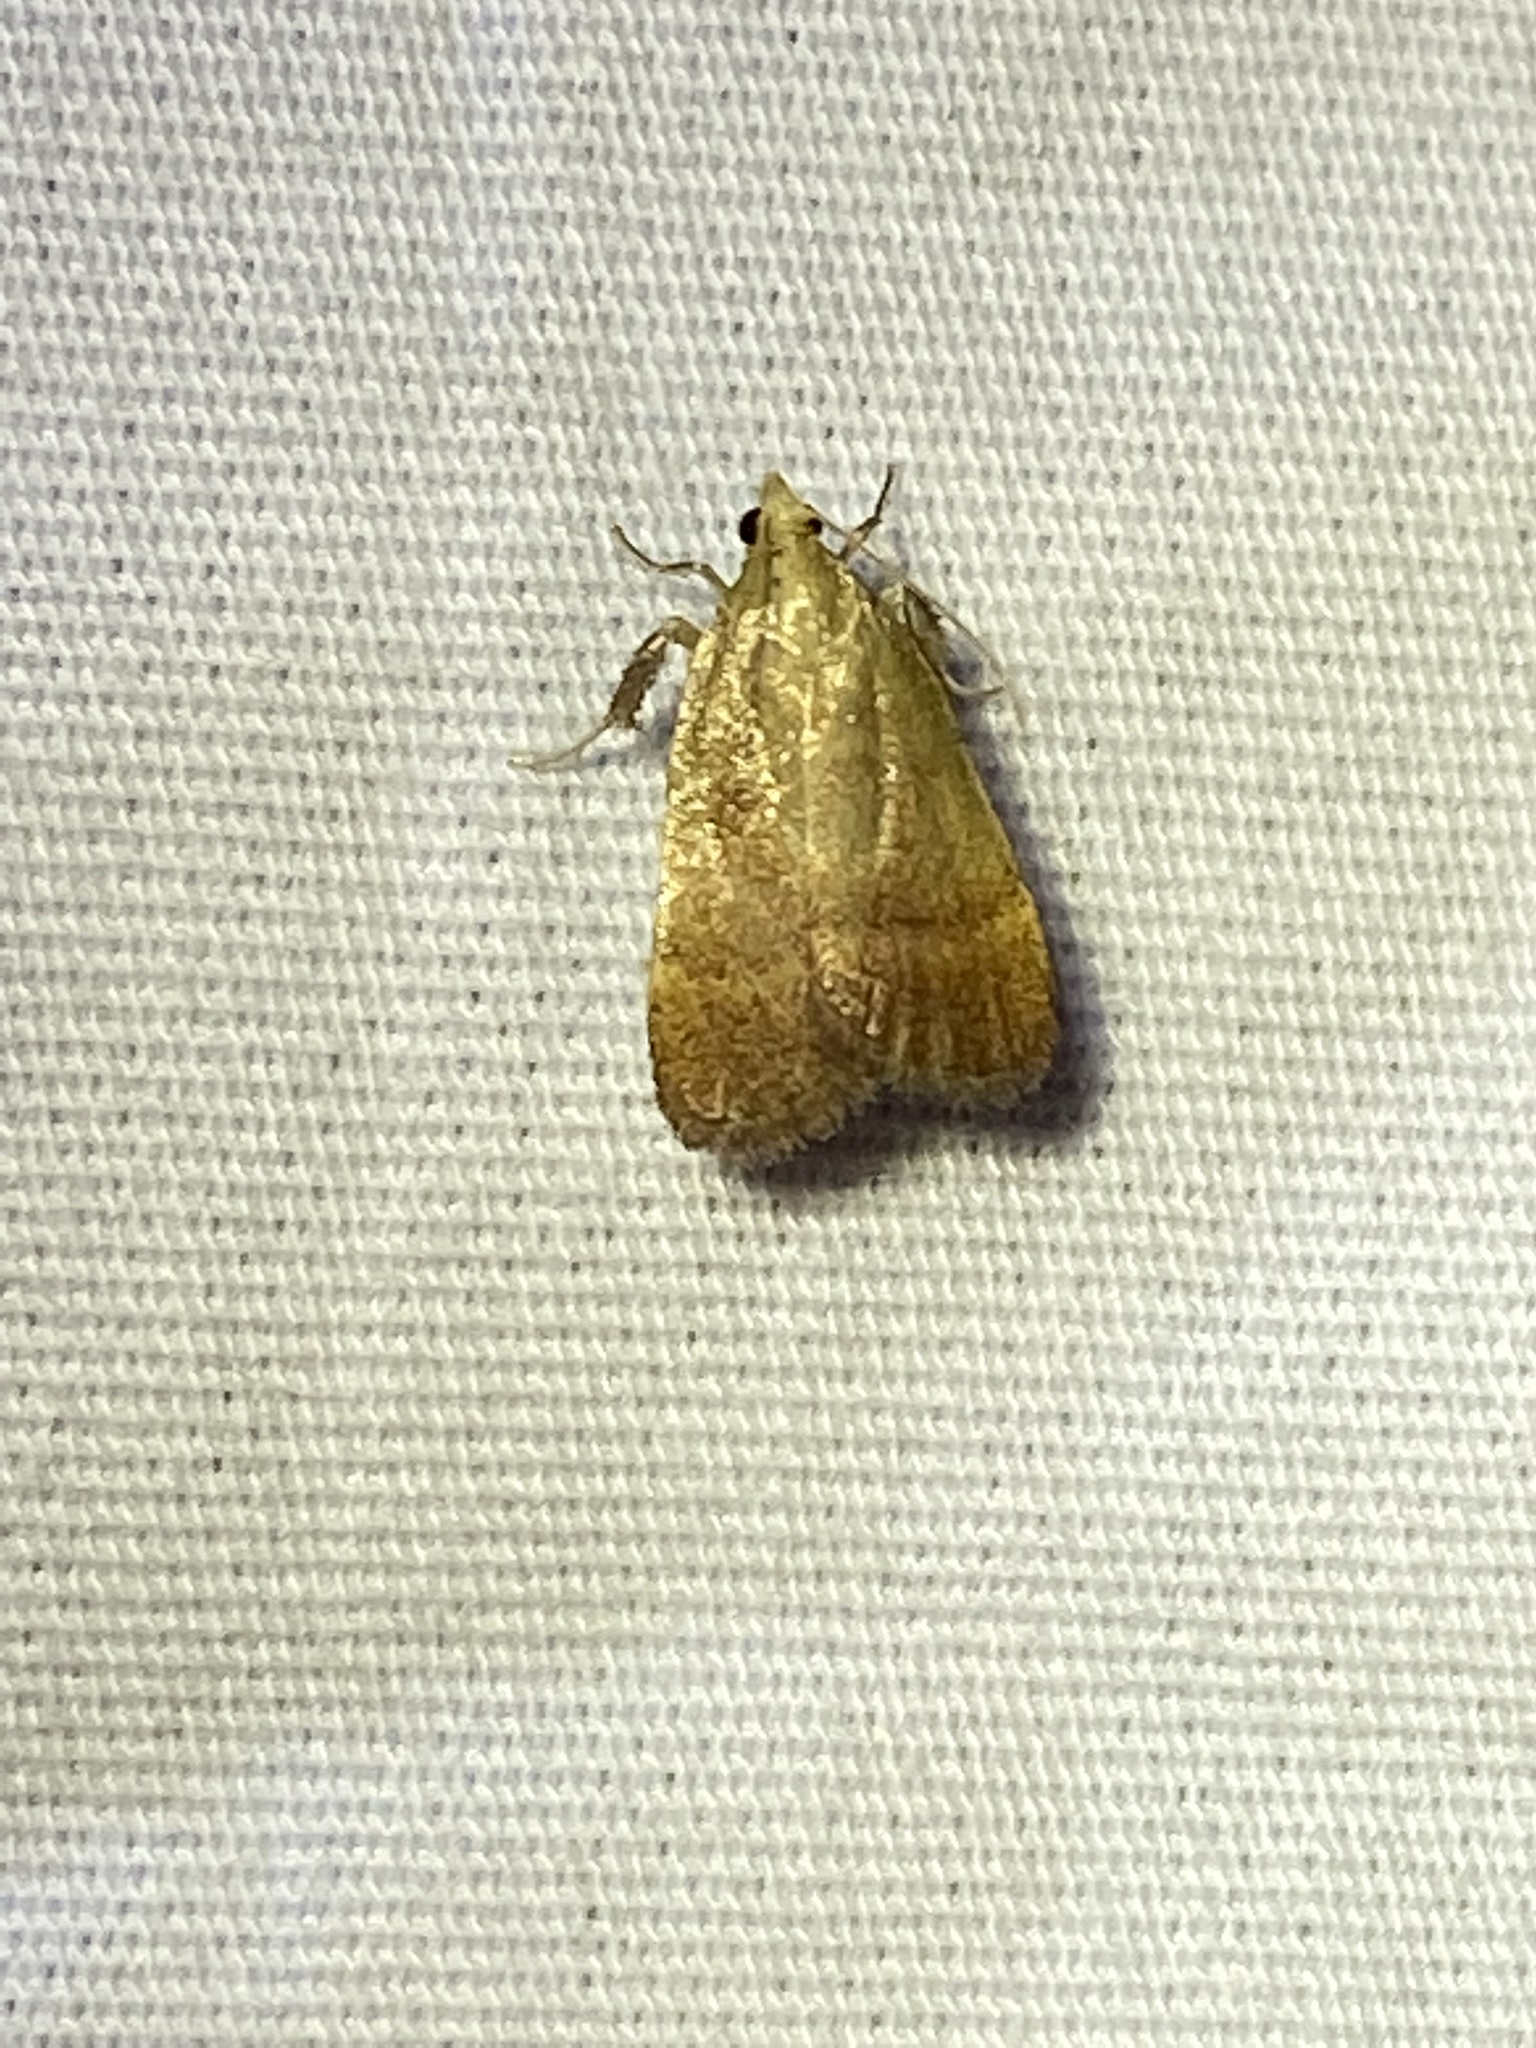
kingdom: Animalia
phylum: Arthropoda
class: Insecta
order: Lepidoptera
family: Pyralidae
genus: Condylolomia
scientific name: Condylolomia participialis
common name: Drab condylolomia moth
